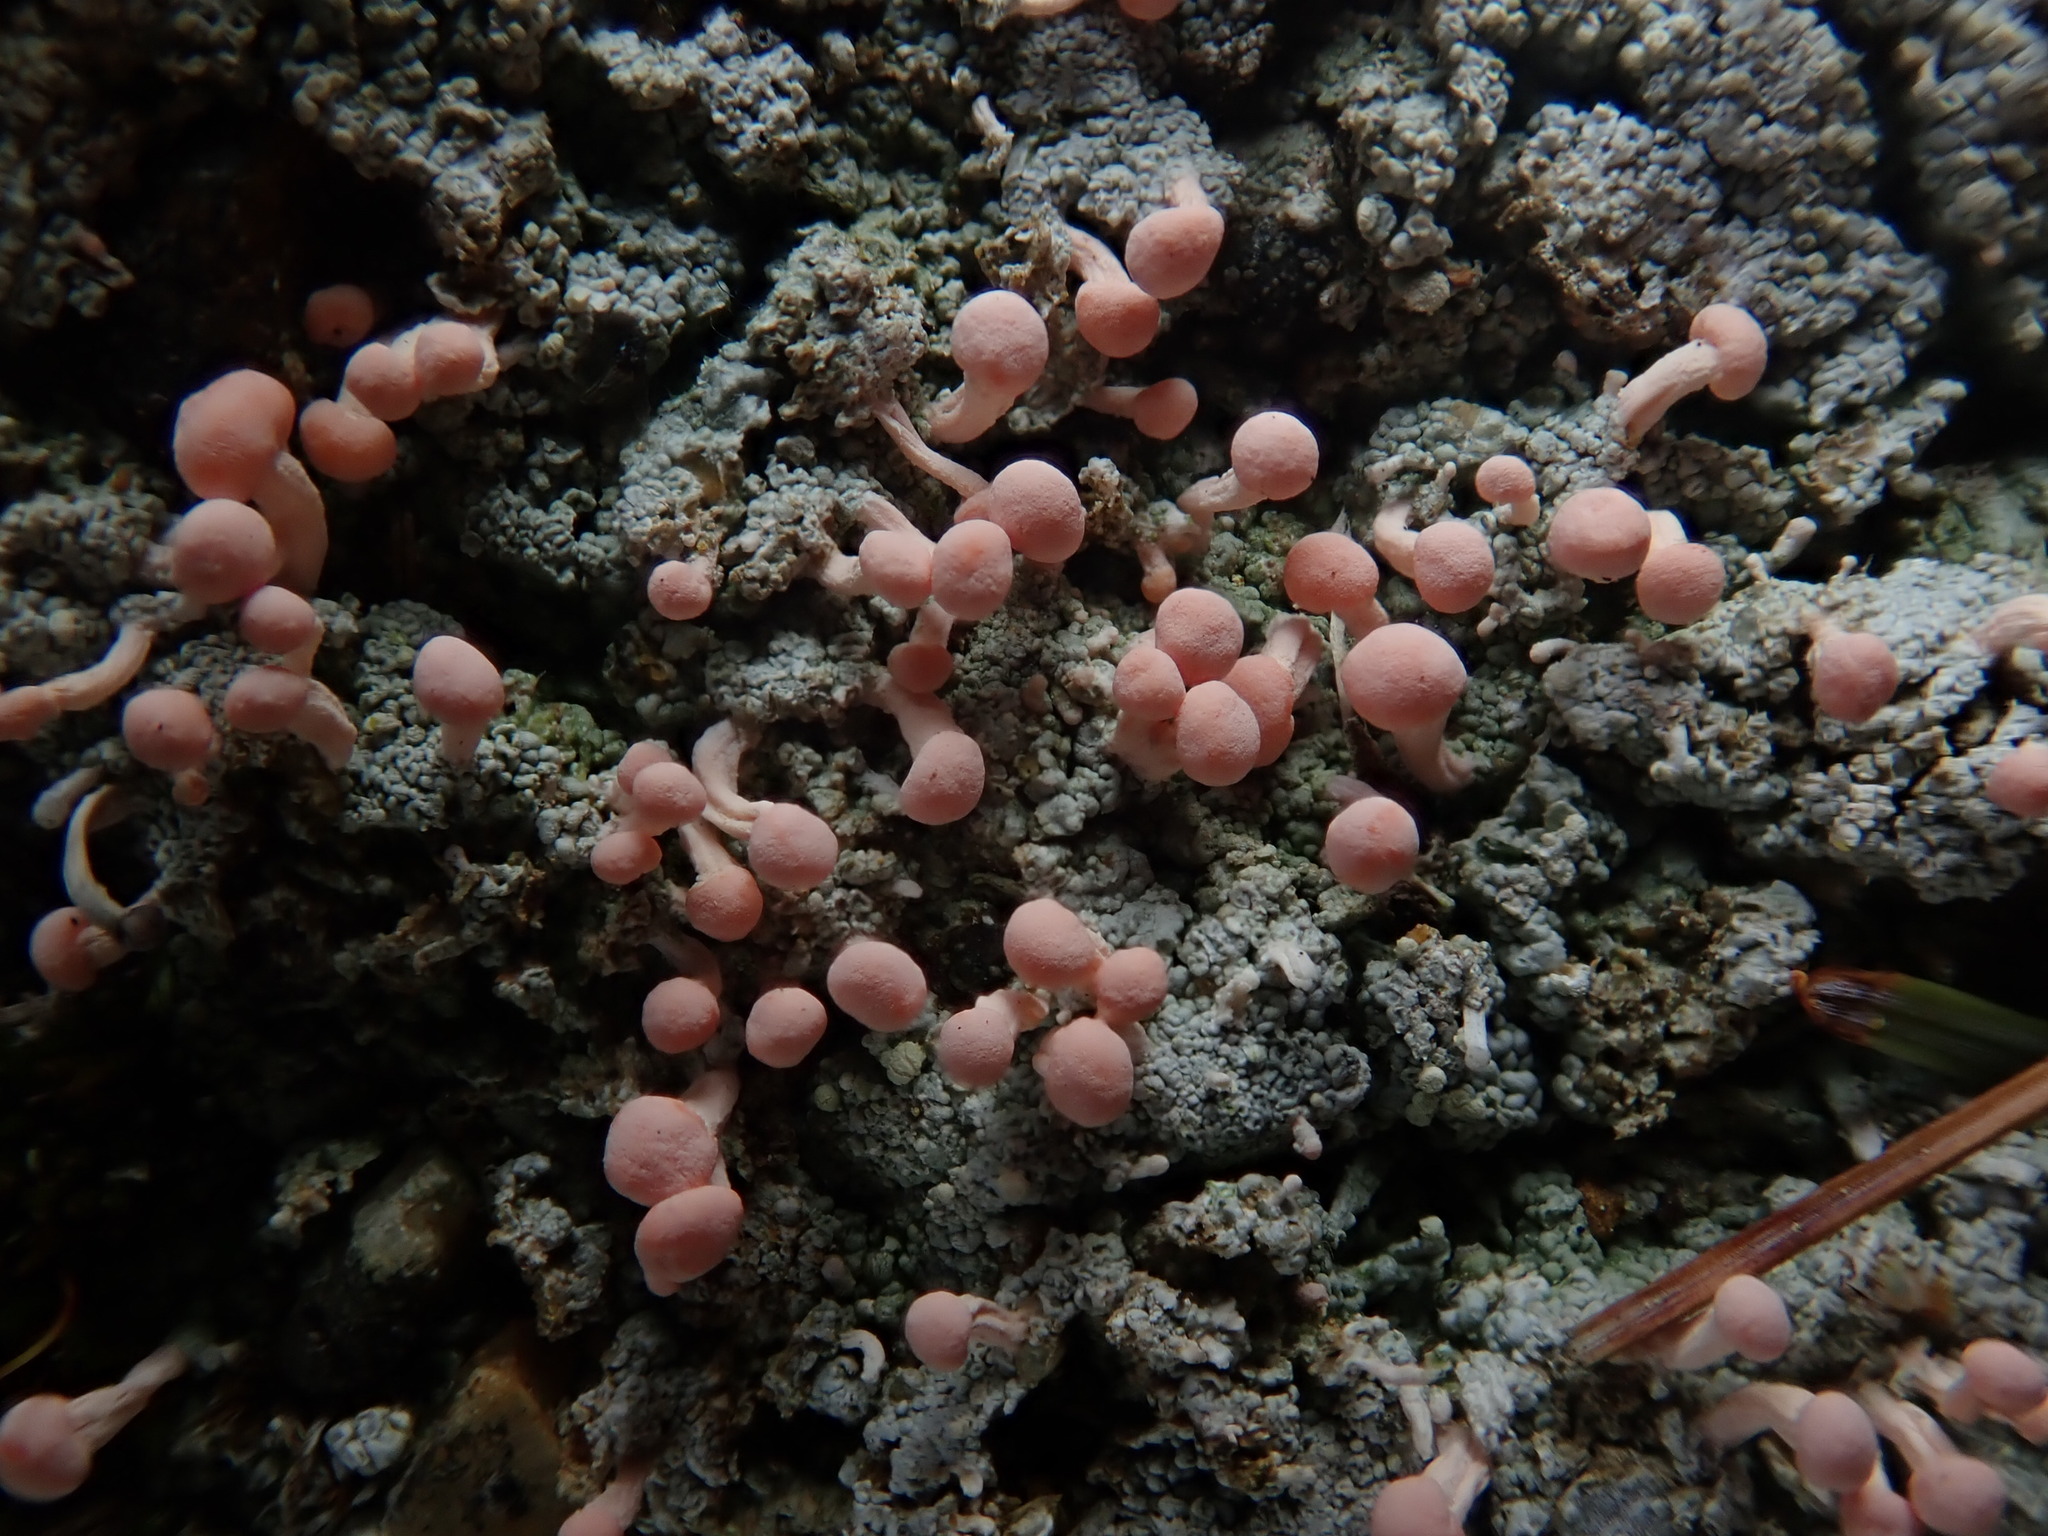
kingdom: Fungi
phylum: Ascomycota
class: Lecanoromycetes
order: Pertusariales
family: Icmadophilaceae
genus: Dibaeis
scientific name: Dibaeis baeomyces
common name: Pink earth lichen
